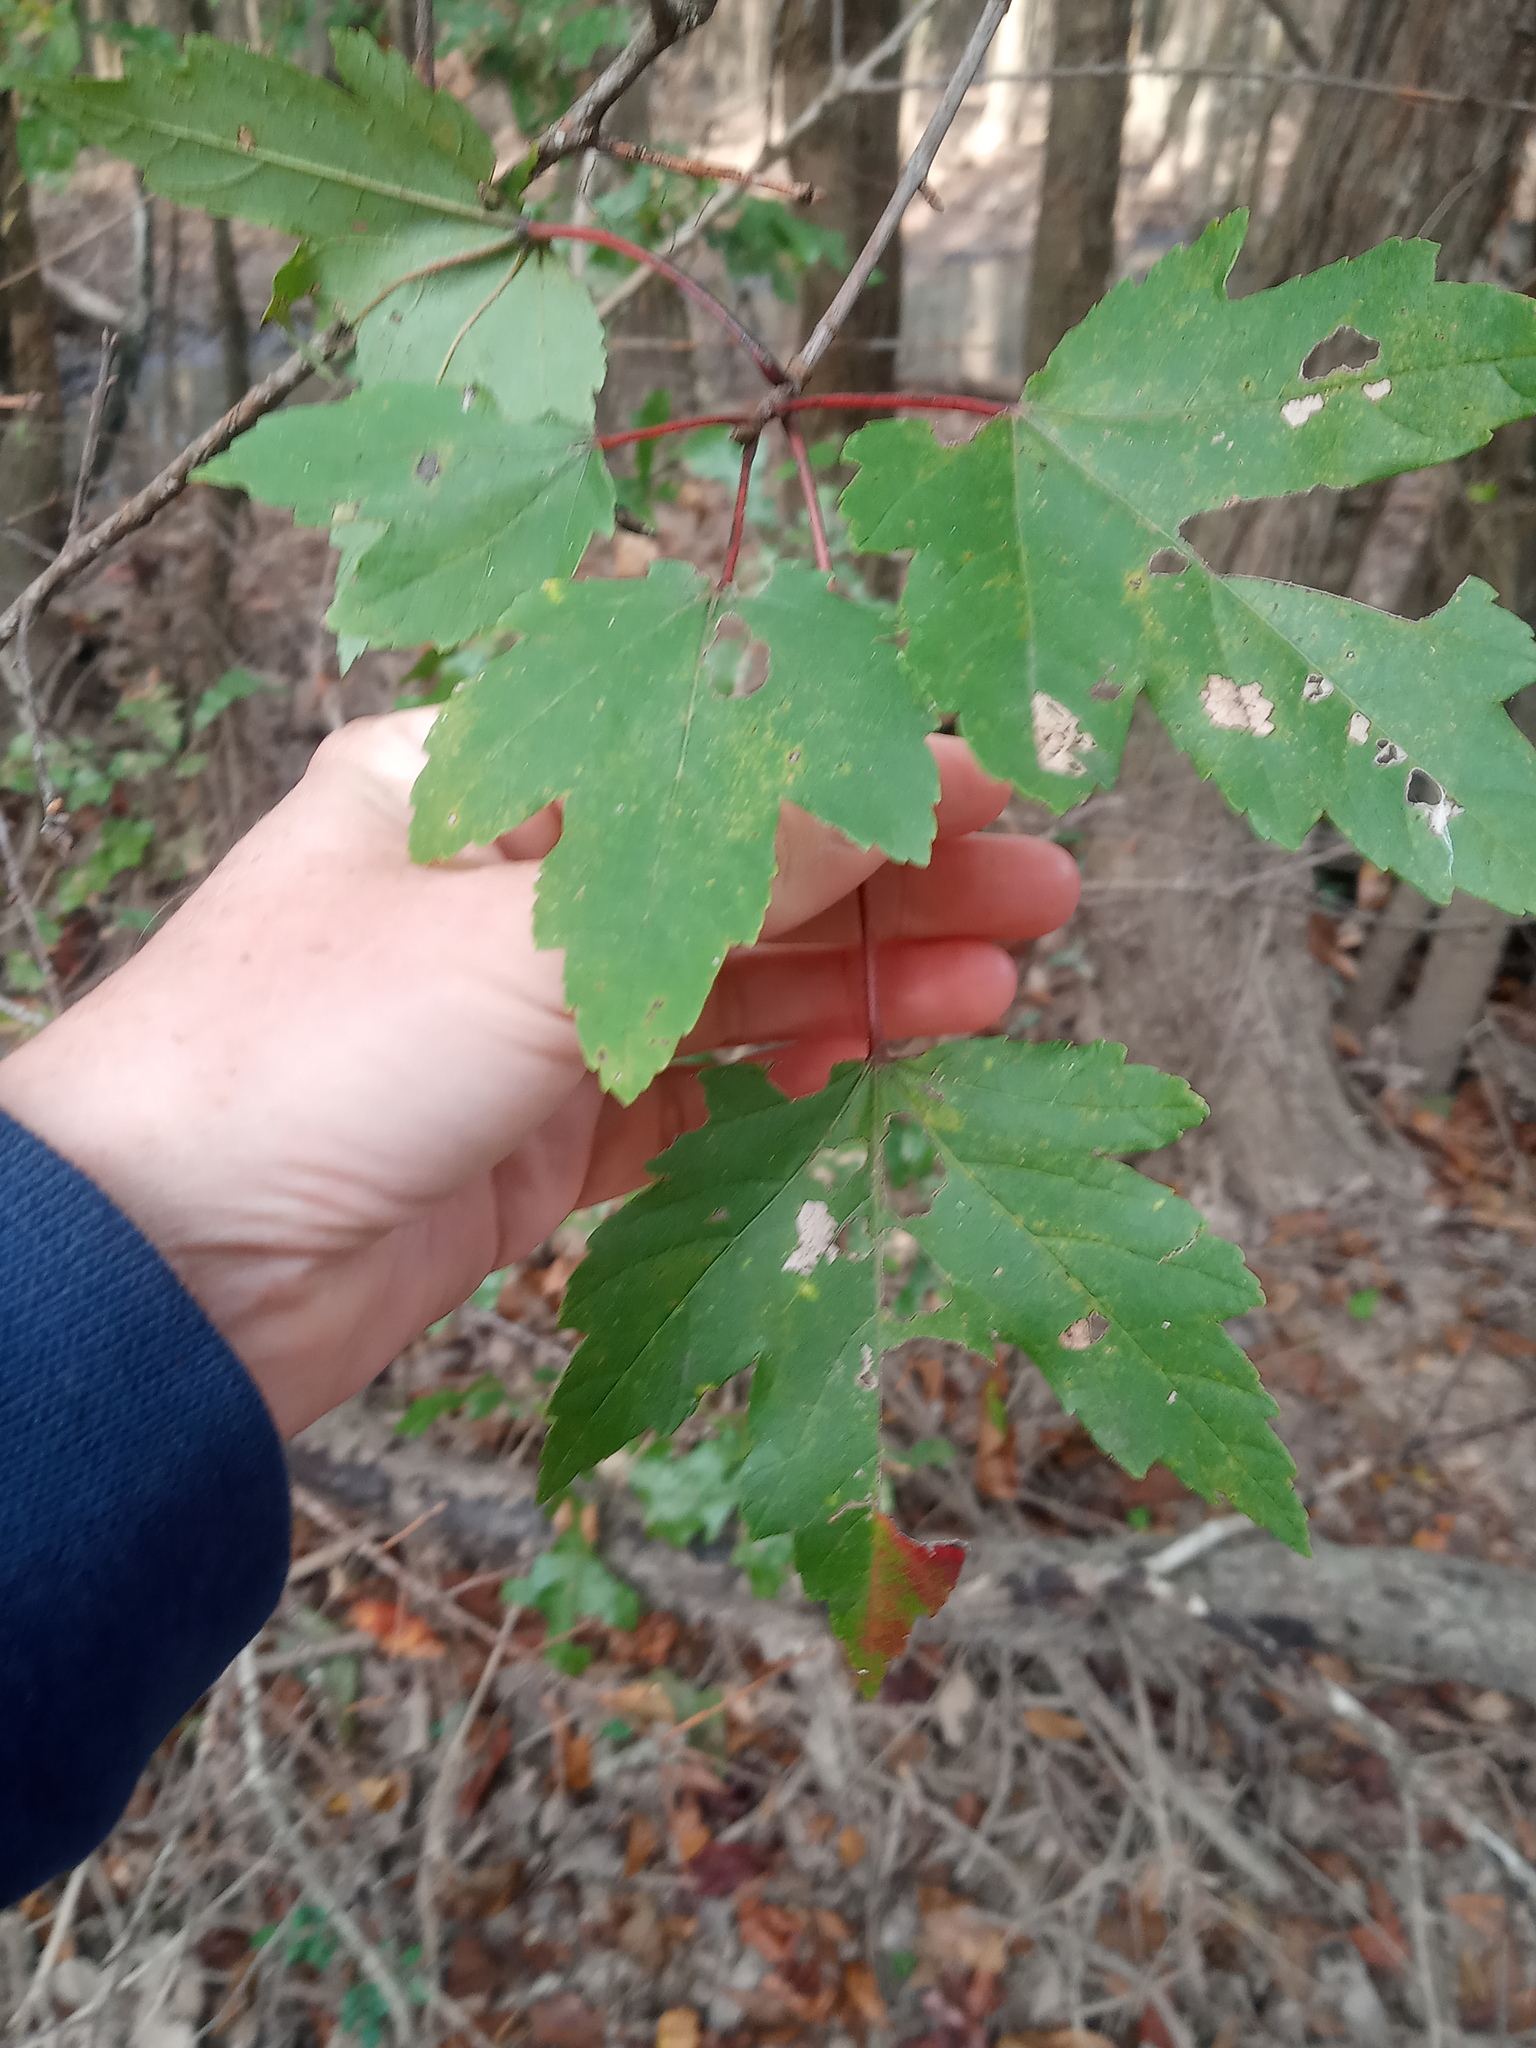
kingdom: Plantae
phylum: Tracheophyta
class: Magnoliopsida
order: Sapindales
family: Sapindaceae
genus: Acer
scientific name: Acer rubrum
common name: Red maple
